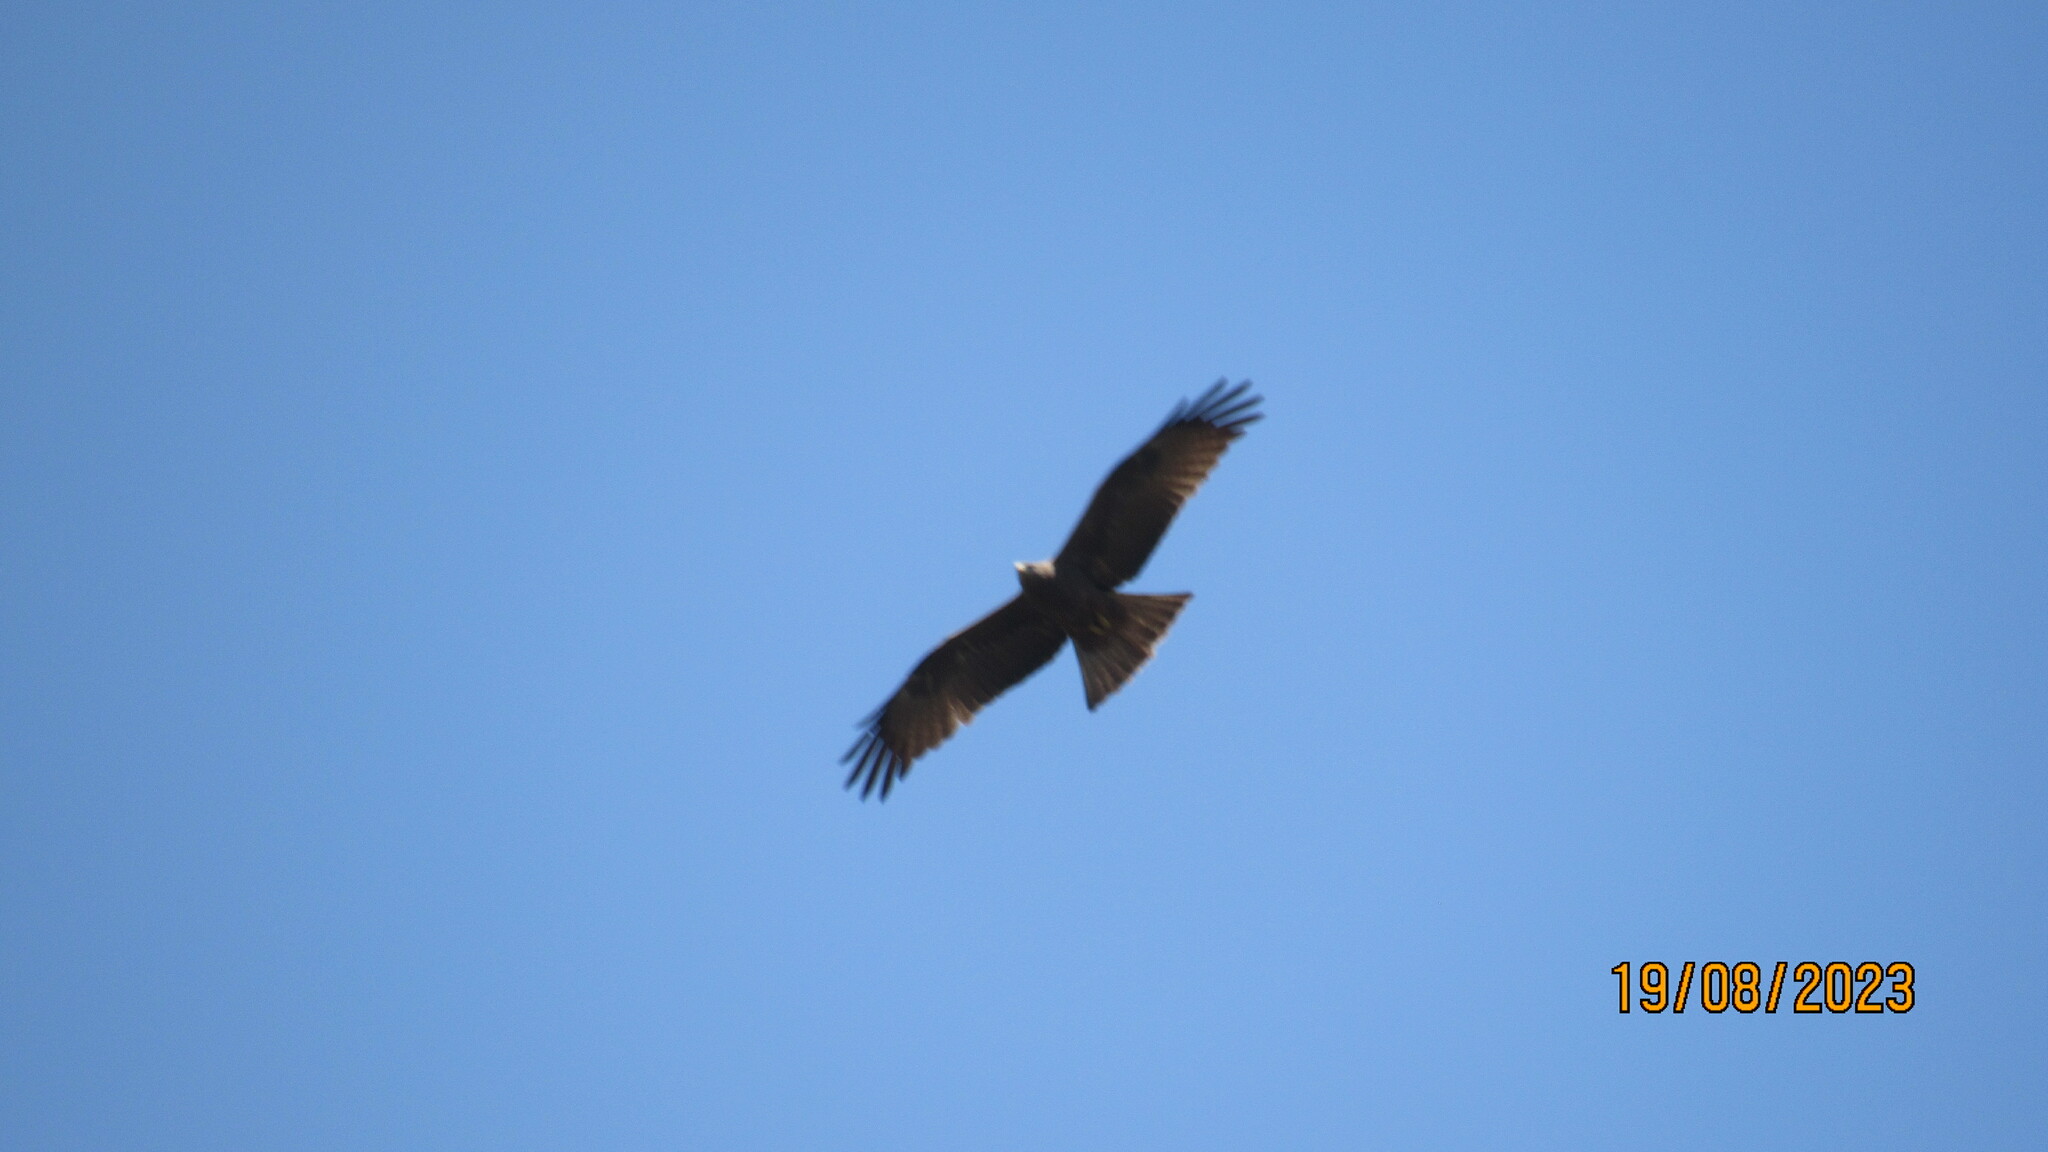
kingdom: Animalia
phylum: Chordata
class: Aves
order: Accipitriformes
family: Accipitridae
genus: Milvus
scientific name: Milvus migrans
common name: Black kite
